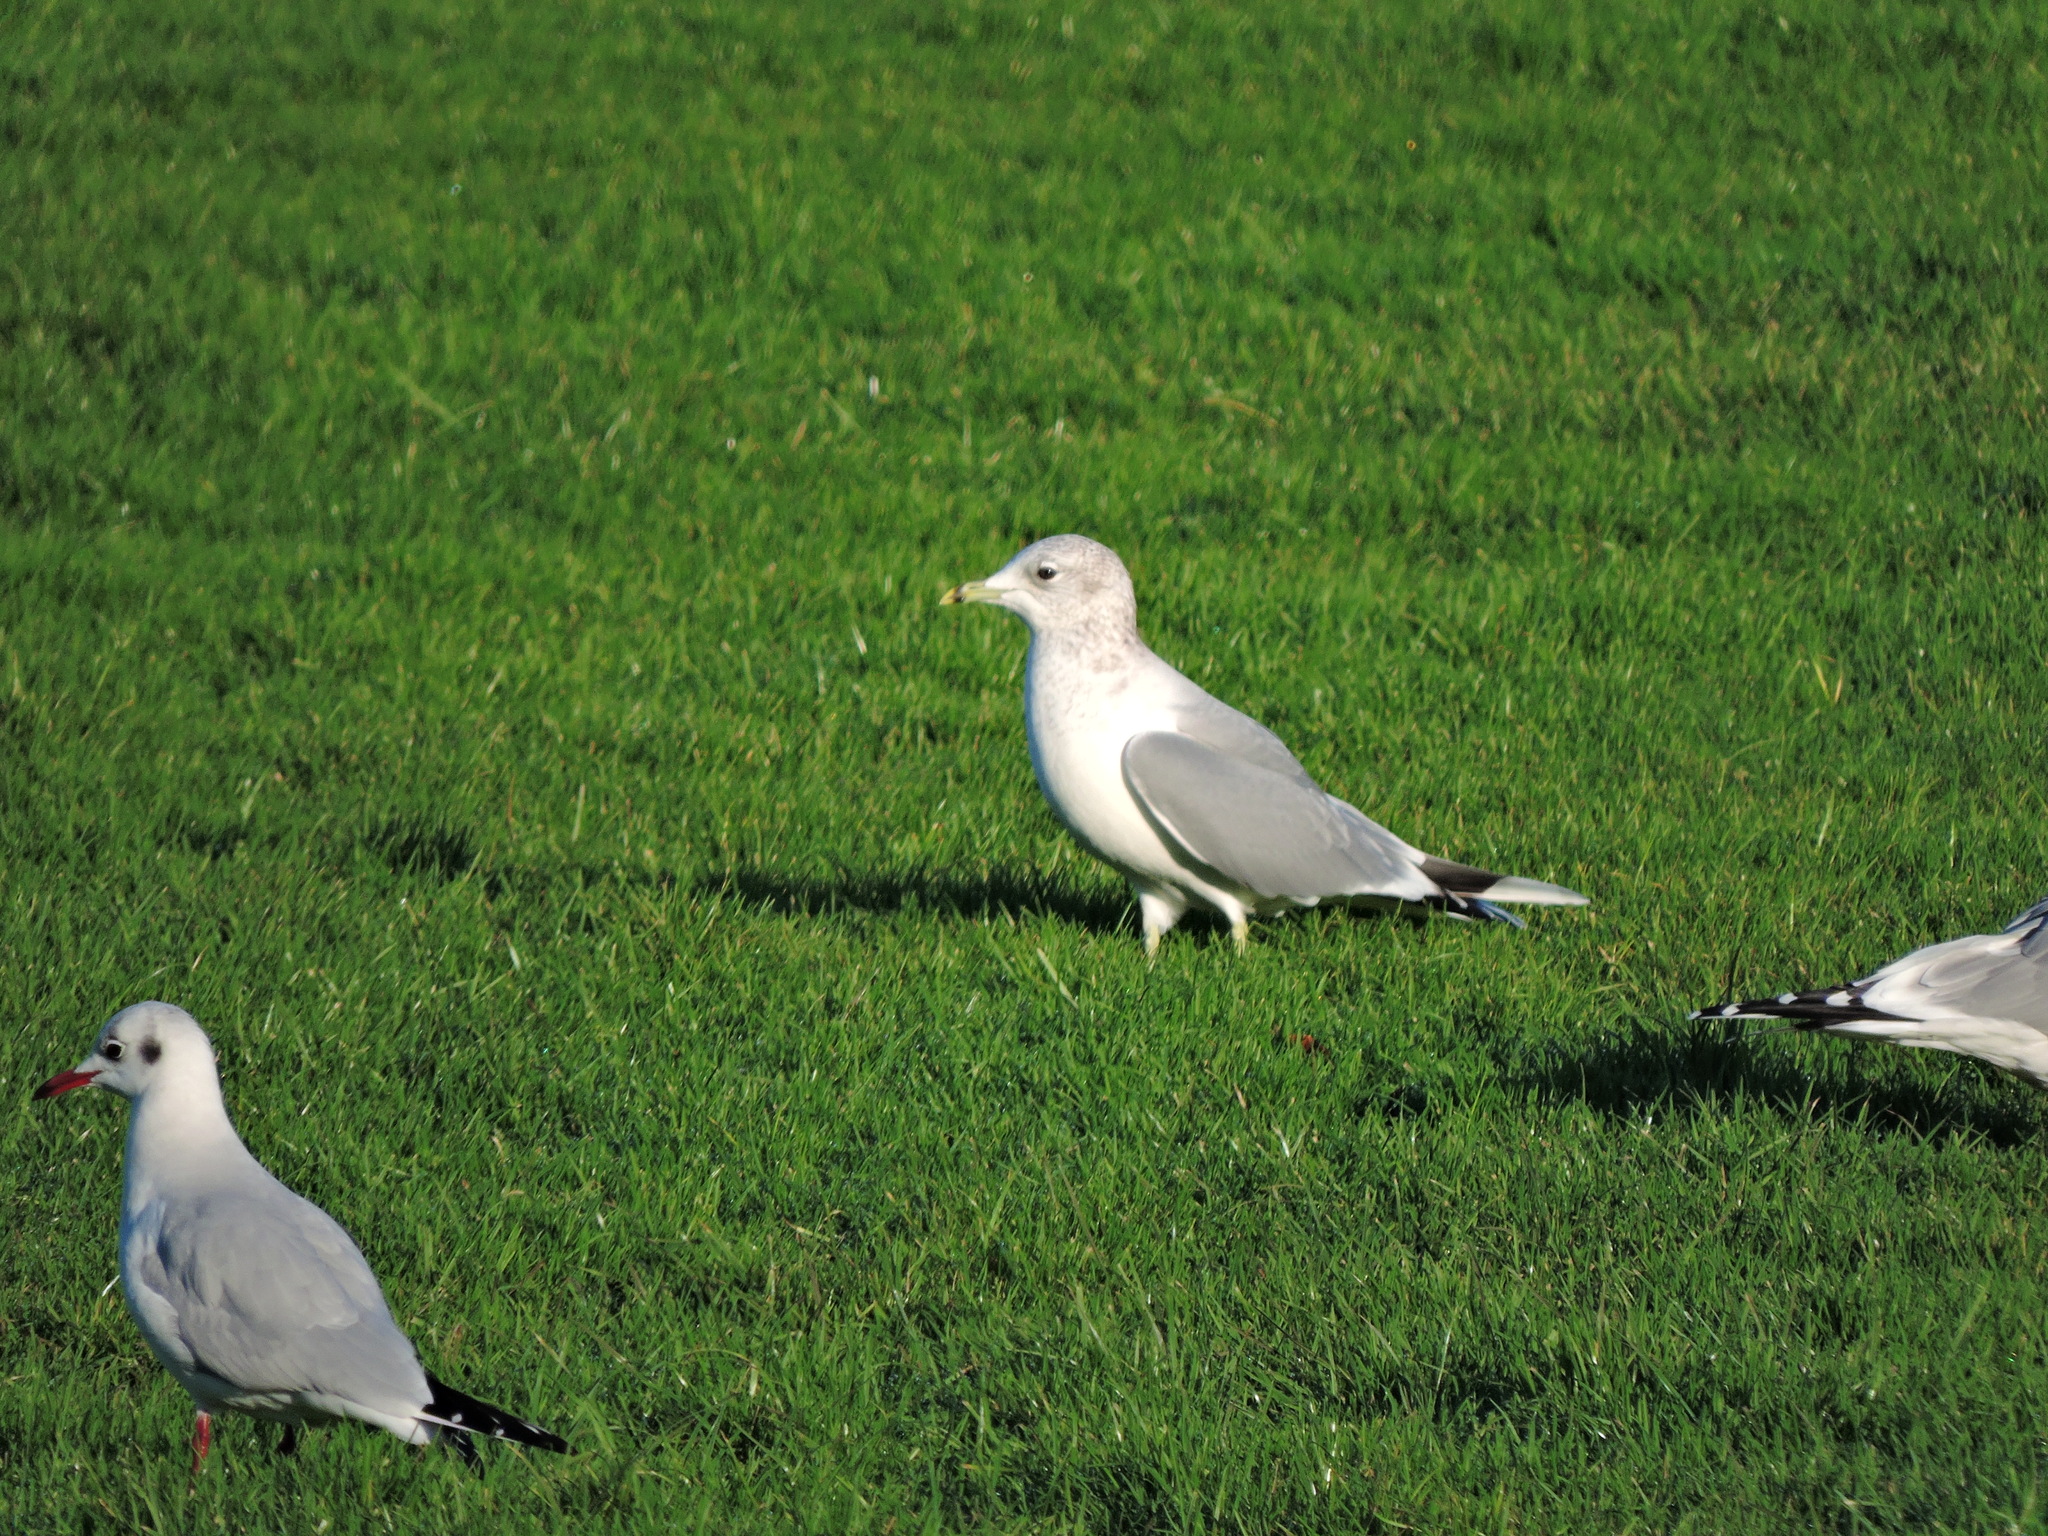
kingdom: Animalia
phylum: Chordata
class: Aves
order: Charadriiformes
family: Laridae
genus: Larus
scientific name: Larus canus
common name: Mew gull
